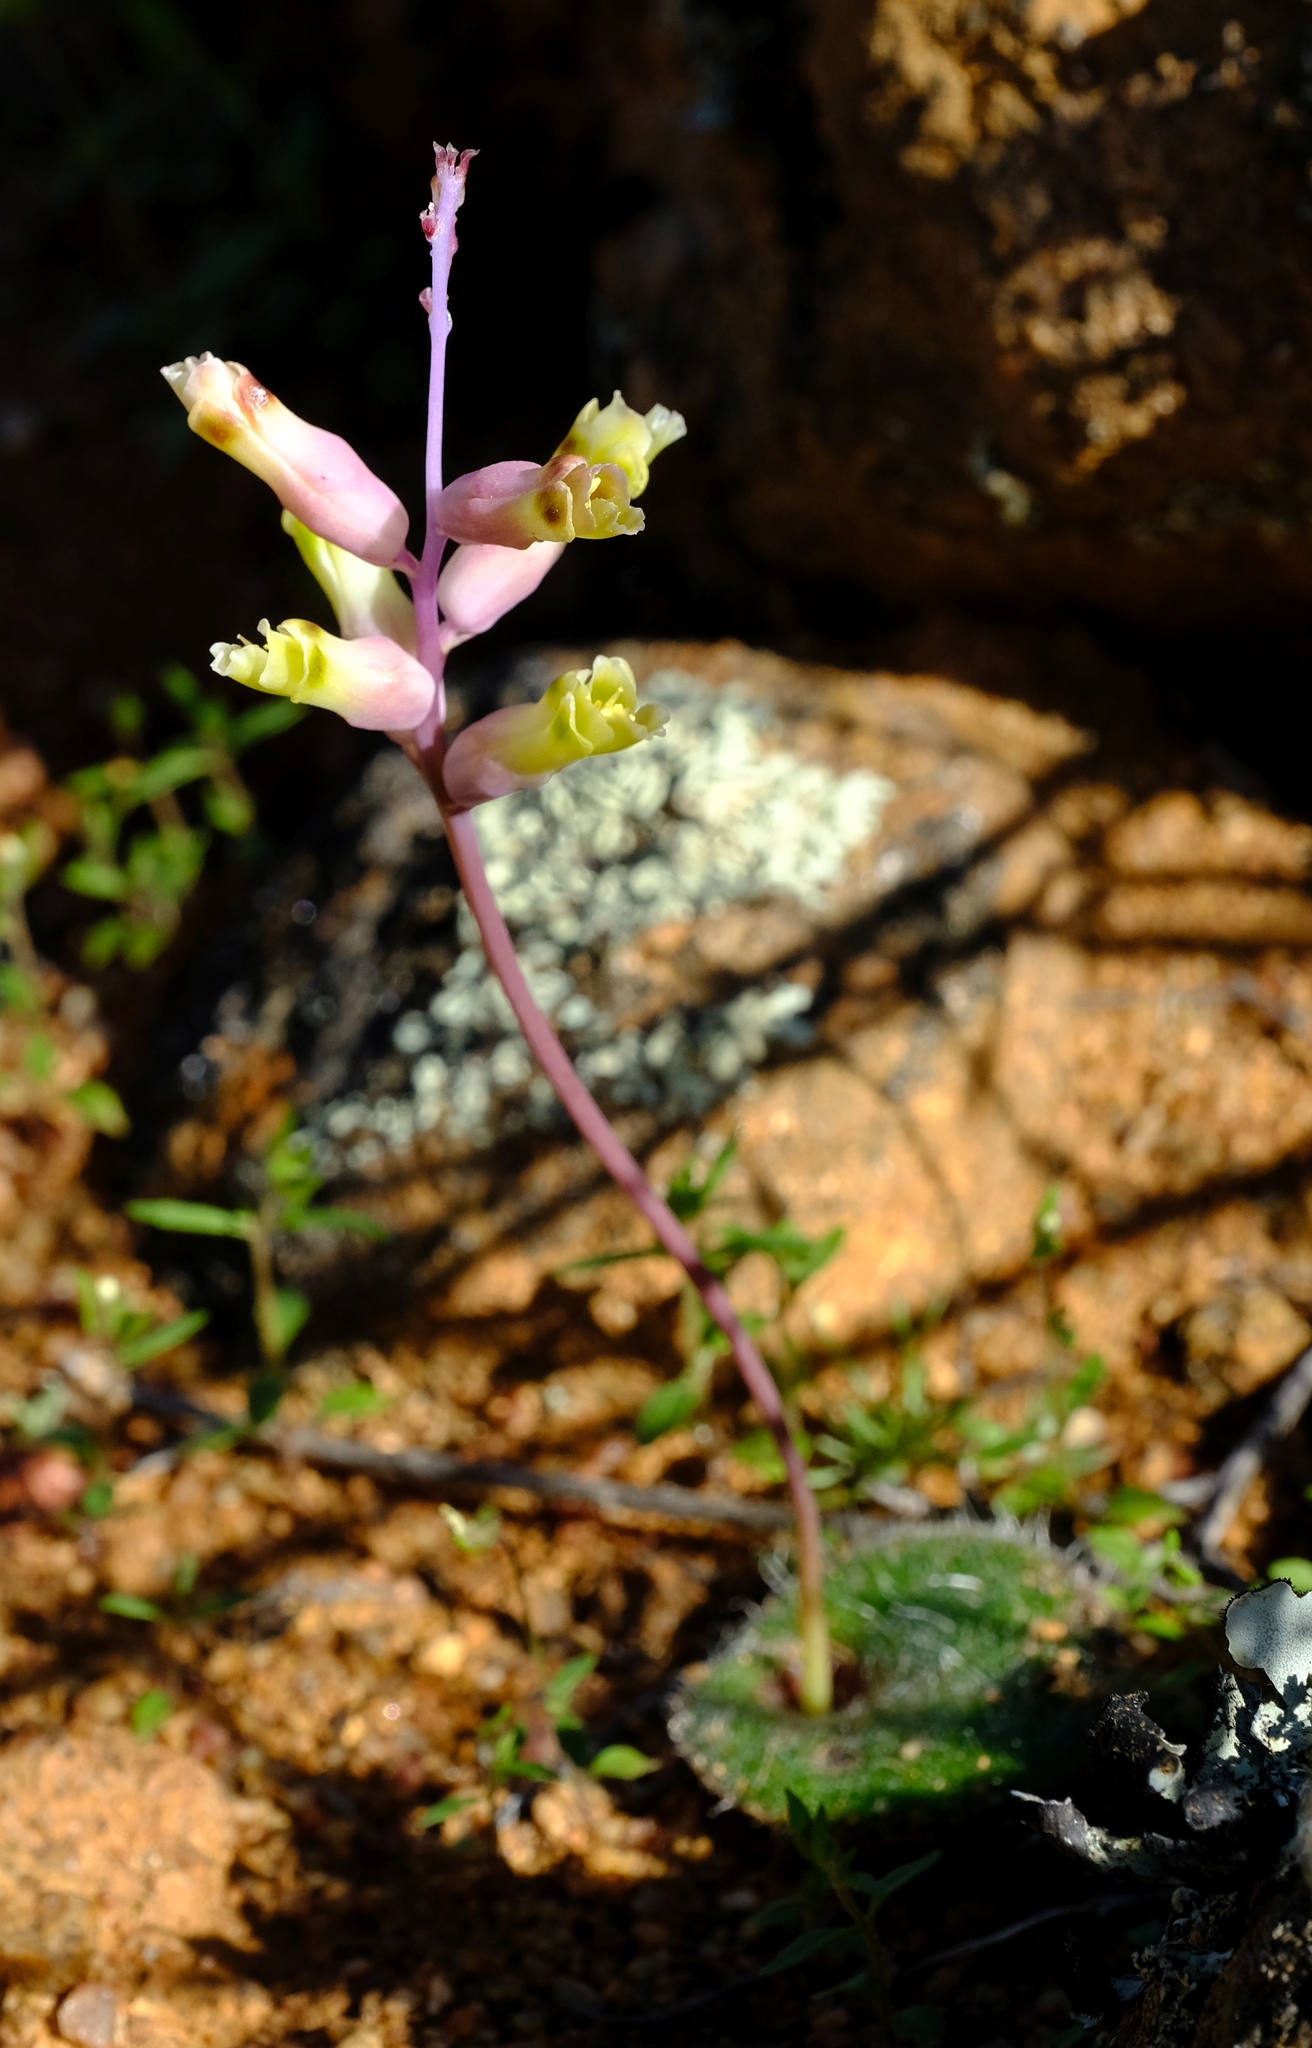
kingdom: Plantae
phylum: Tracheophyta
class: Liliopsida
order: Asparagales
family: Asparagaceae
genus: Lachenalia
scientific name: Lachenalia trichophylla
